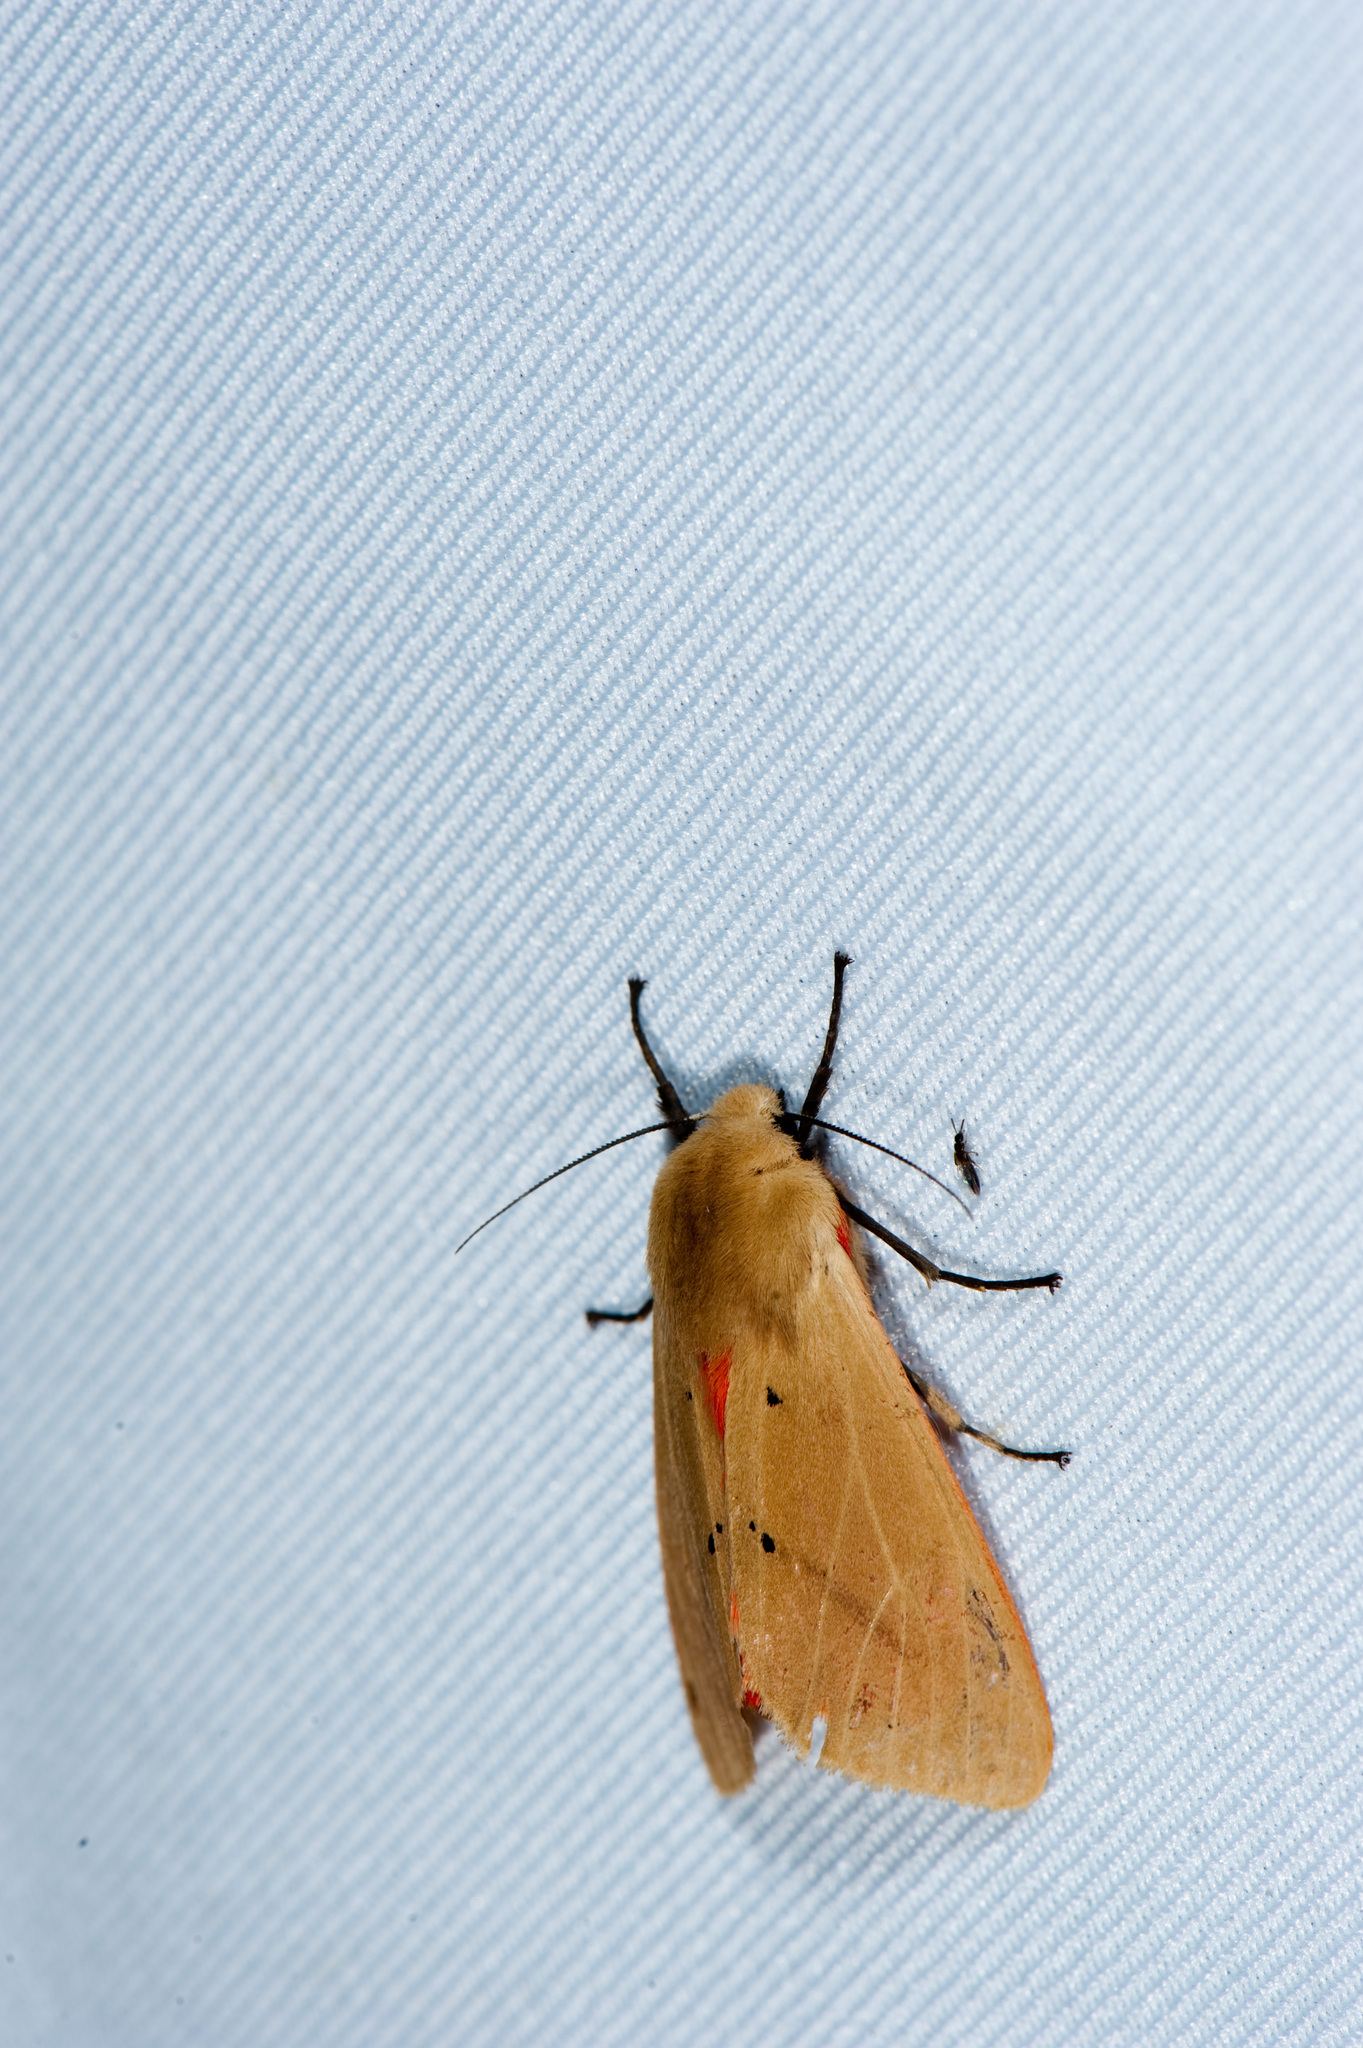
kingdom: Animalia
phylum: Arthropoda
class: Insecta
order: Lepidoptera
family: Erebidae
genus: Spilarctia
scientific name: Spilarctia wilemani
